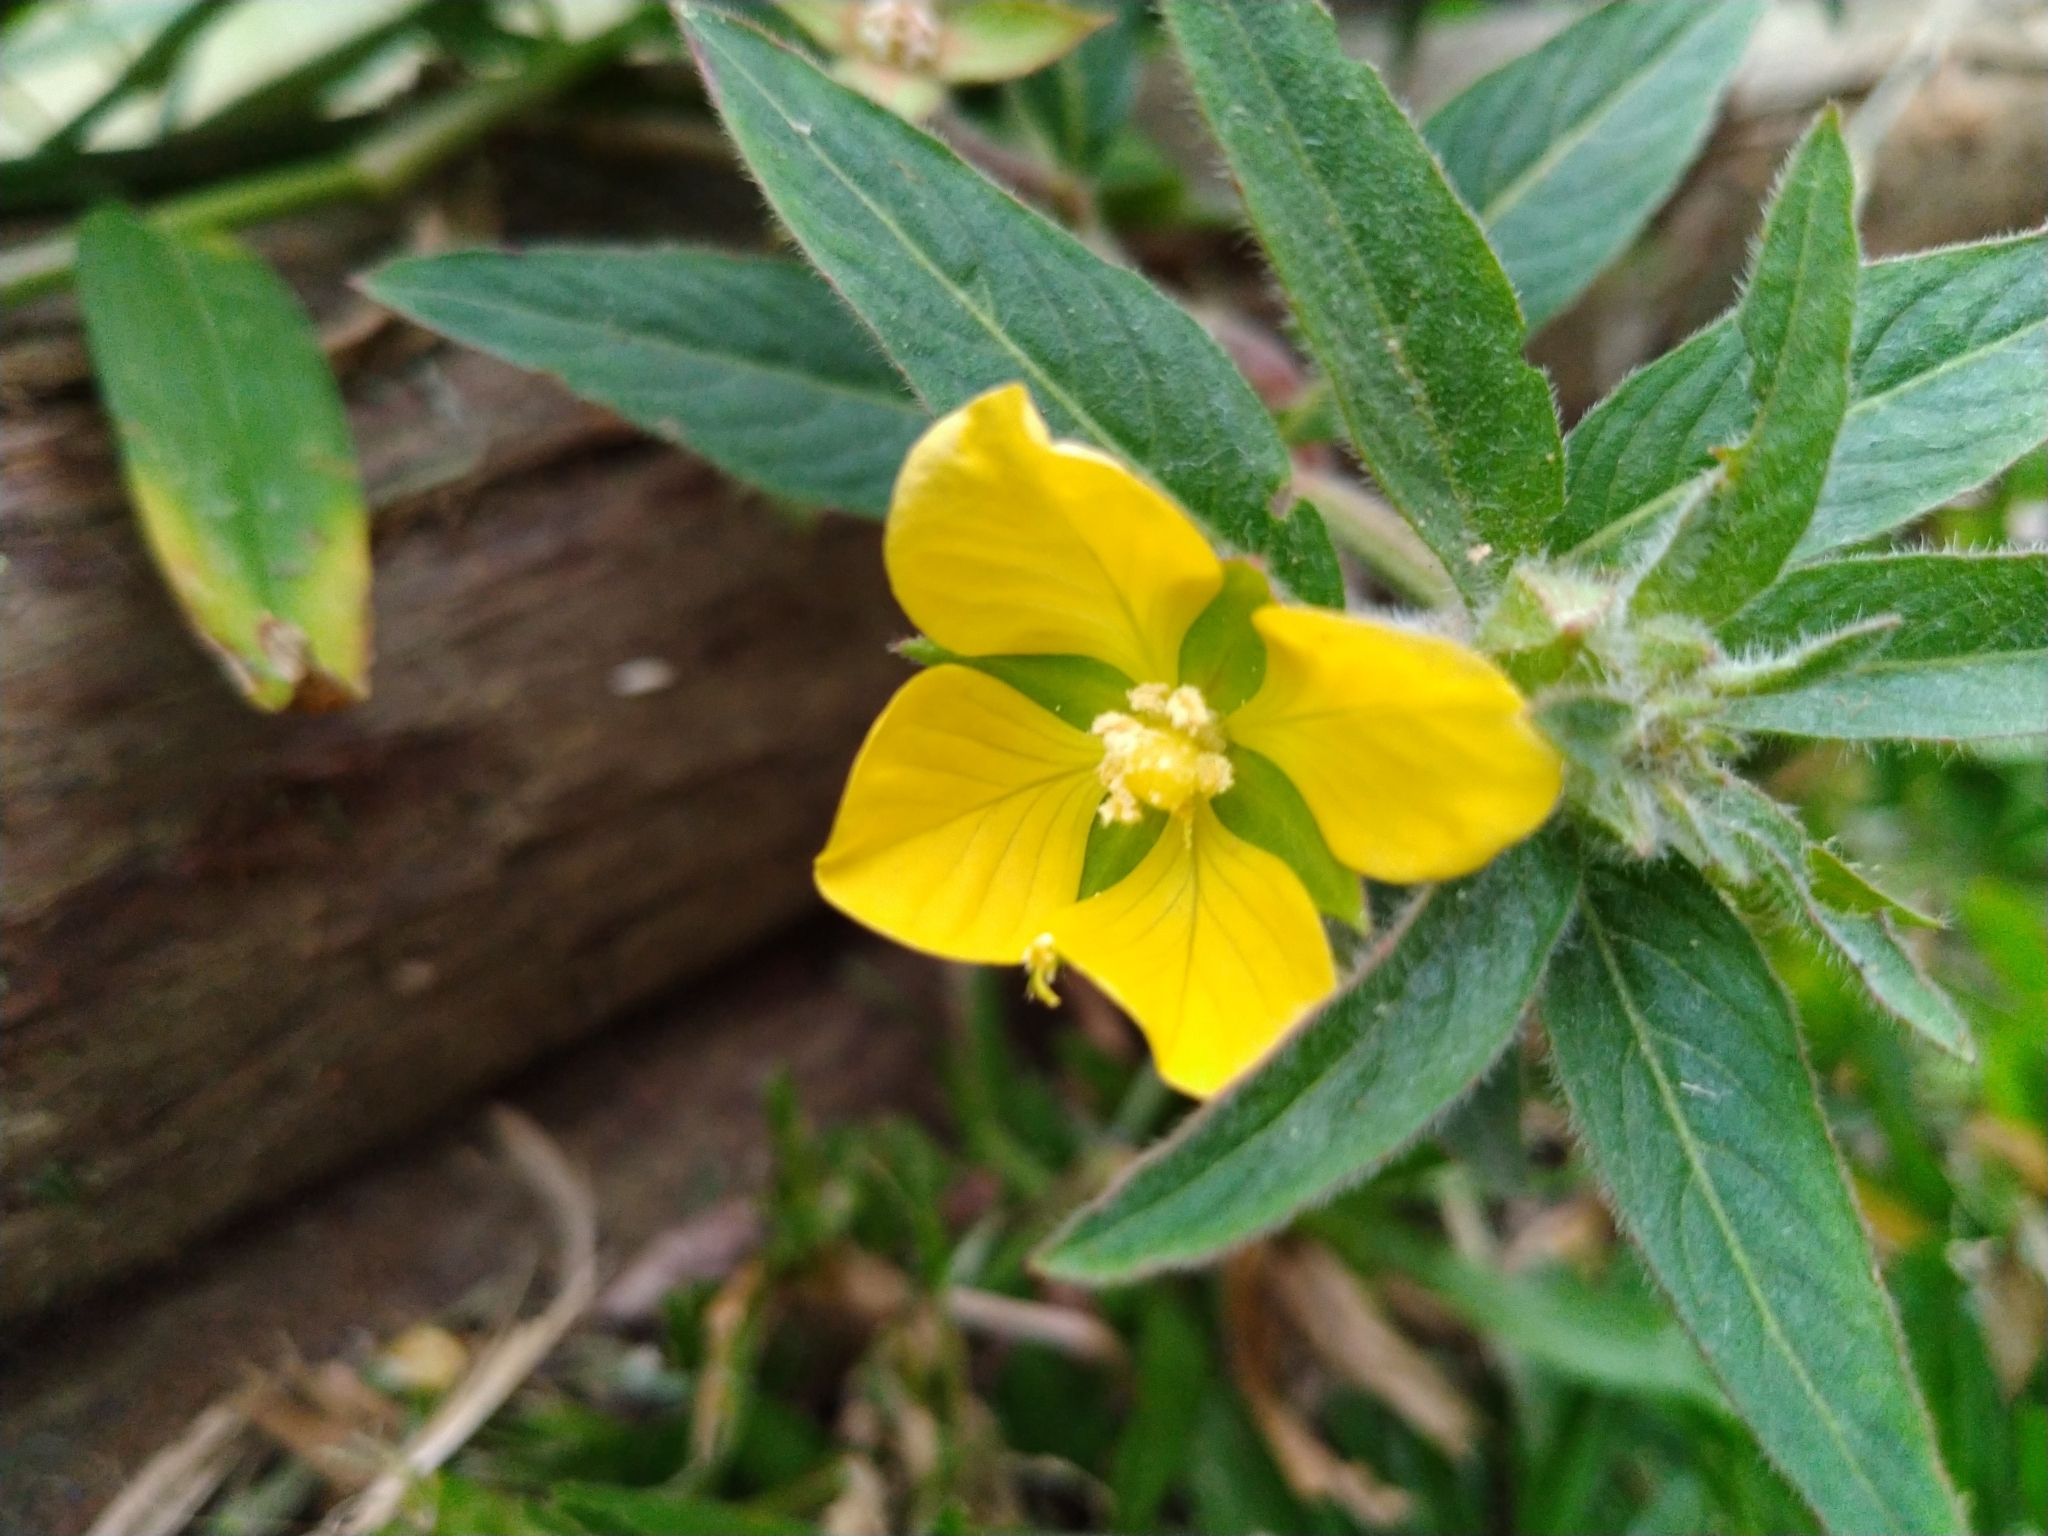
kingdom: Plantae
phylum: Tracheophyta
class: Magnoliopsida
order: Myrtales
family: Onagraceae
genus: Ludwigia
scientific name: Ludwigia octovalvis
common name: Water-primrose
